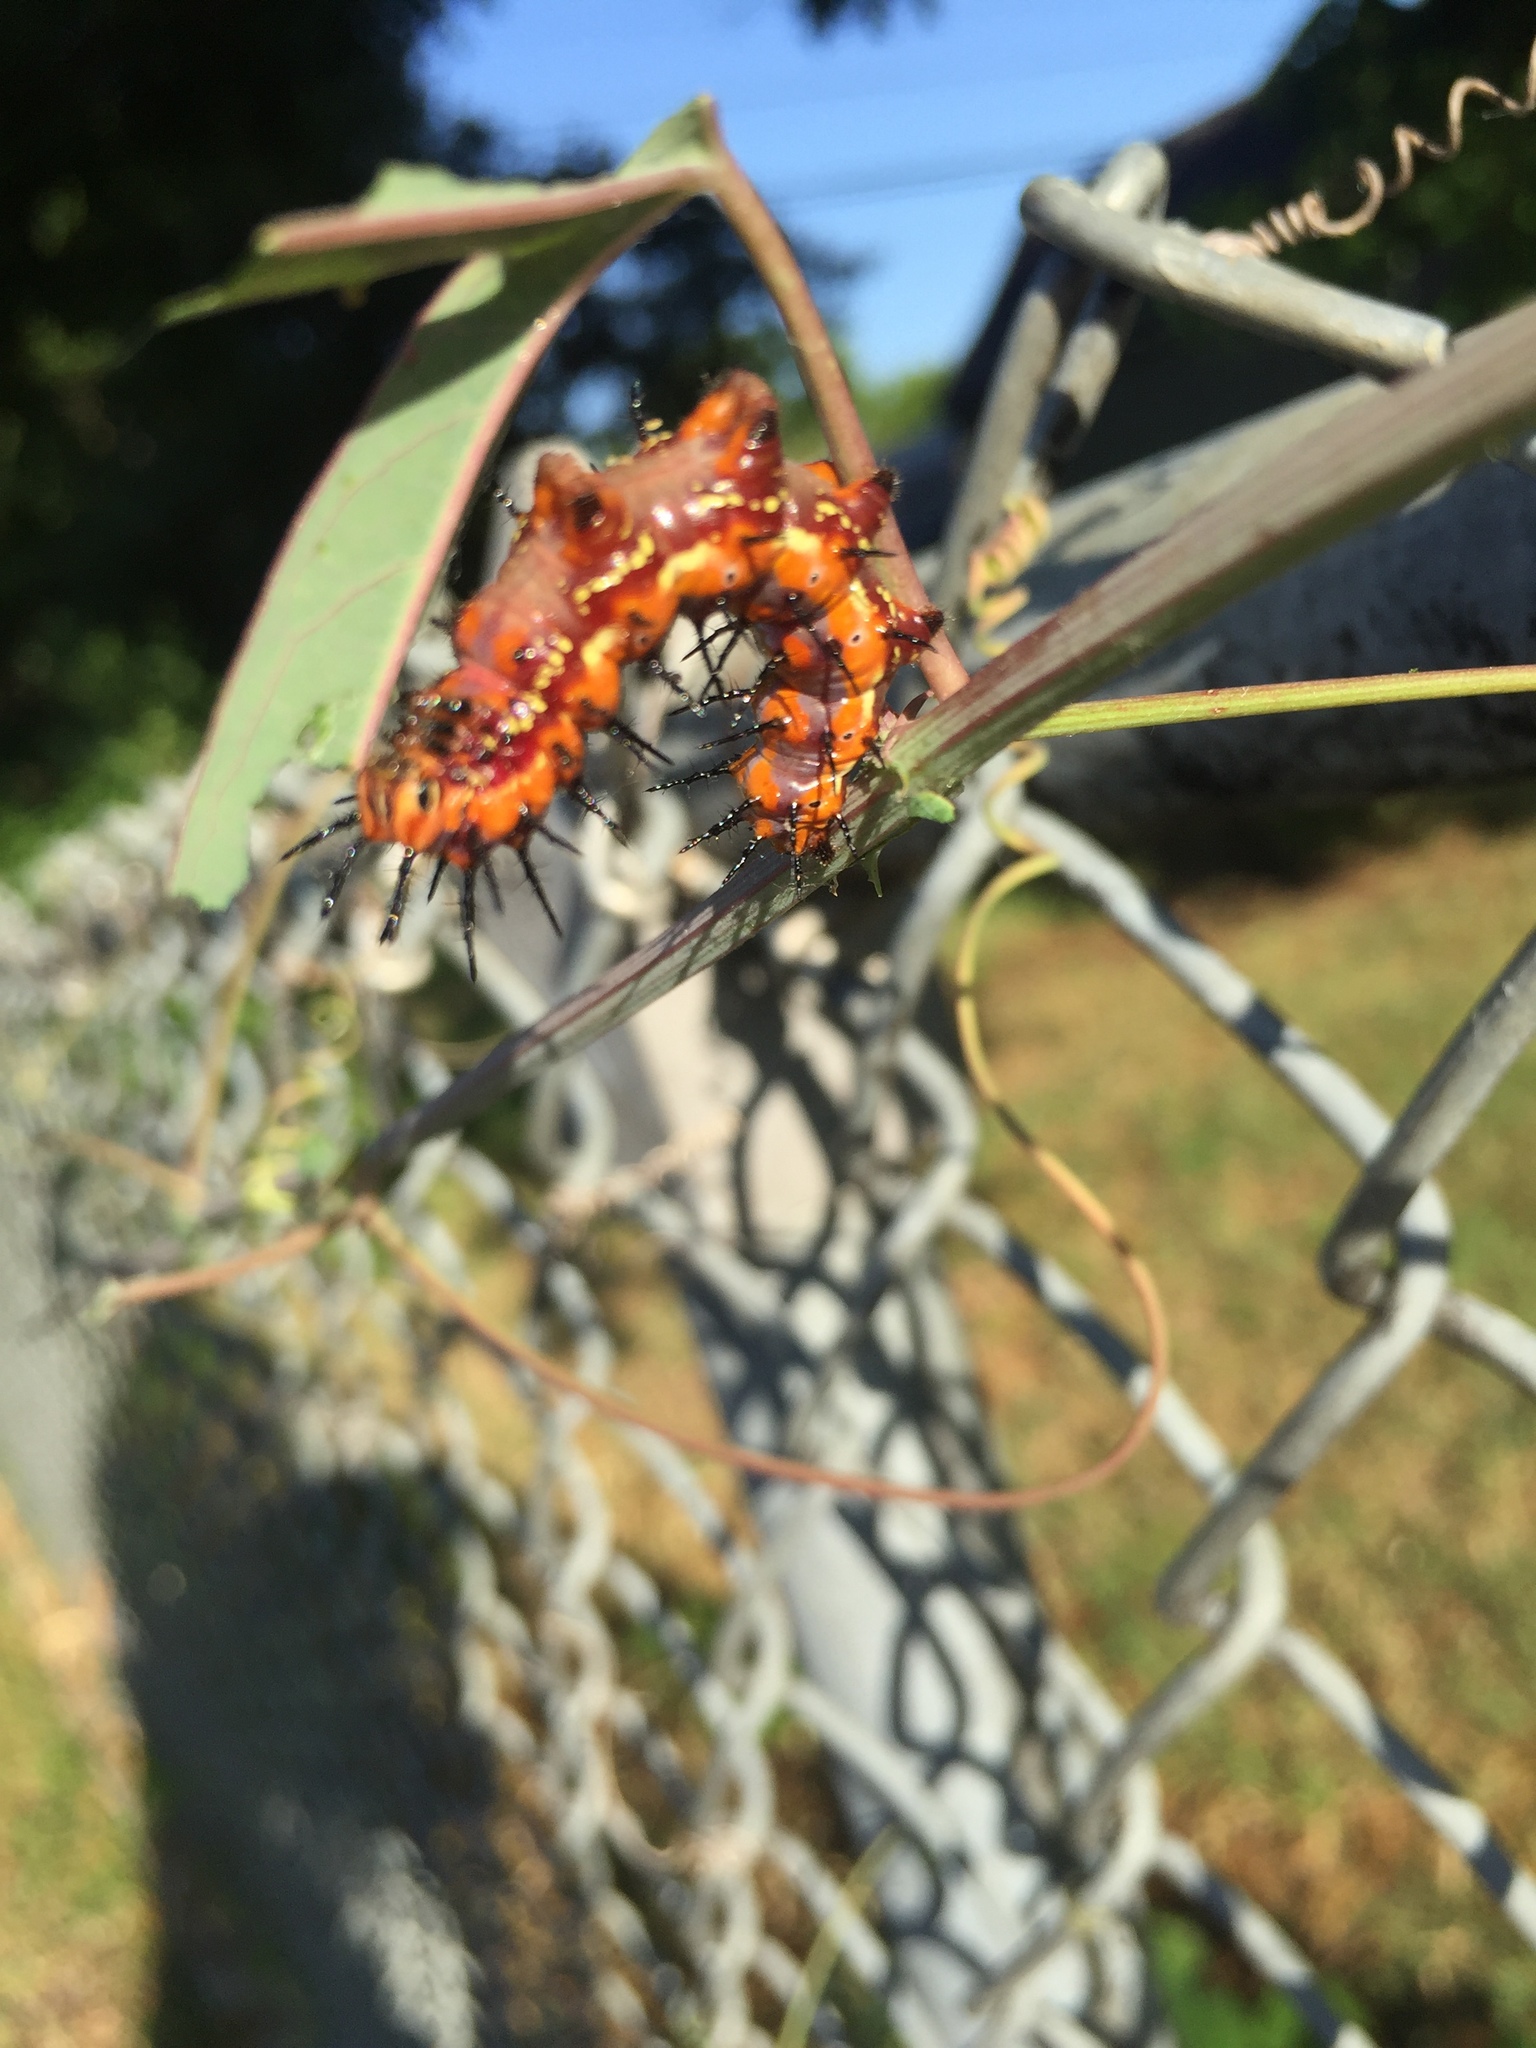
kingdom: Animalia
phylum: Arthropoda
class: Insecta
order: Lepidoptera
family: Nymphalidae
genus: Dione
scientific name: Dione vanillae
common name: Gulf fritillary
